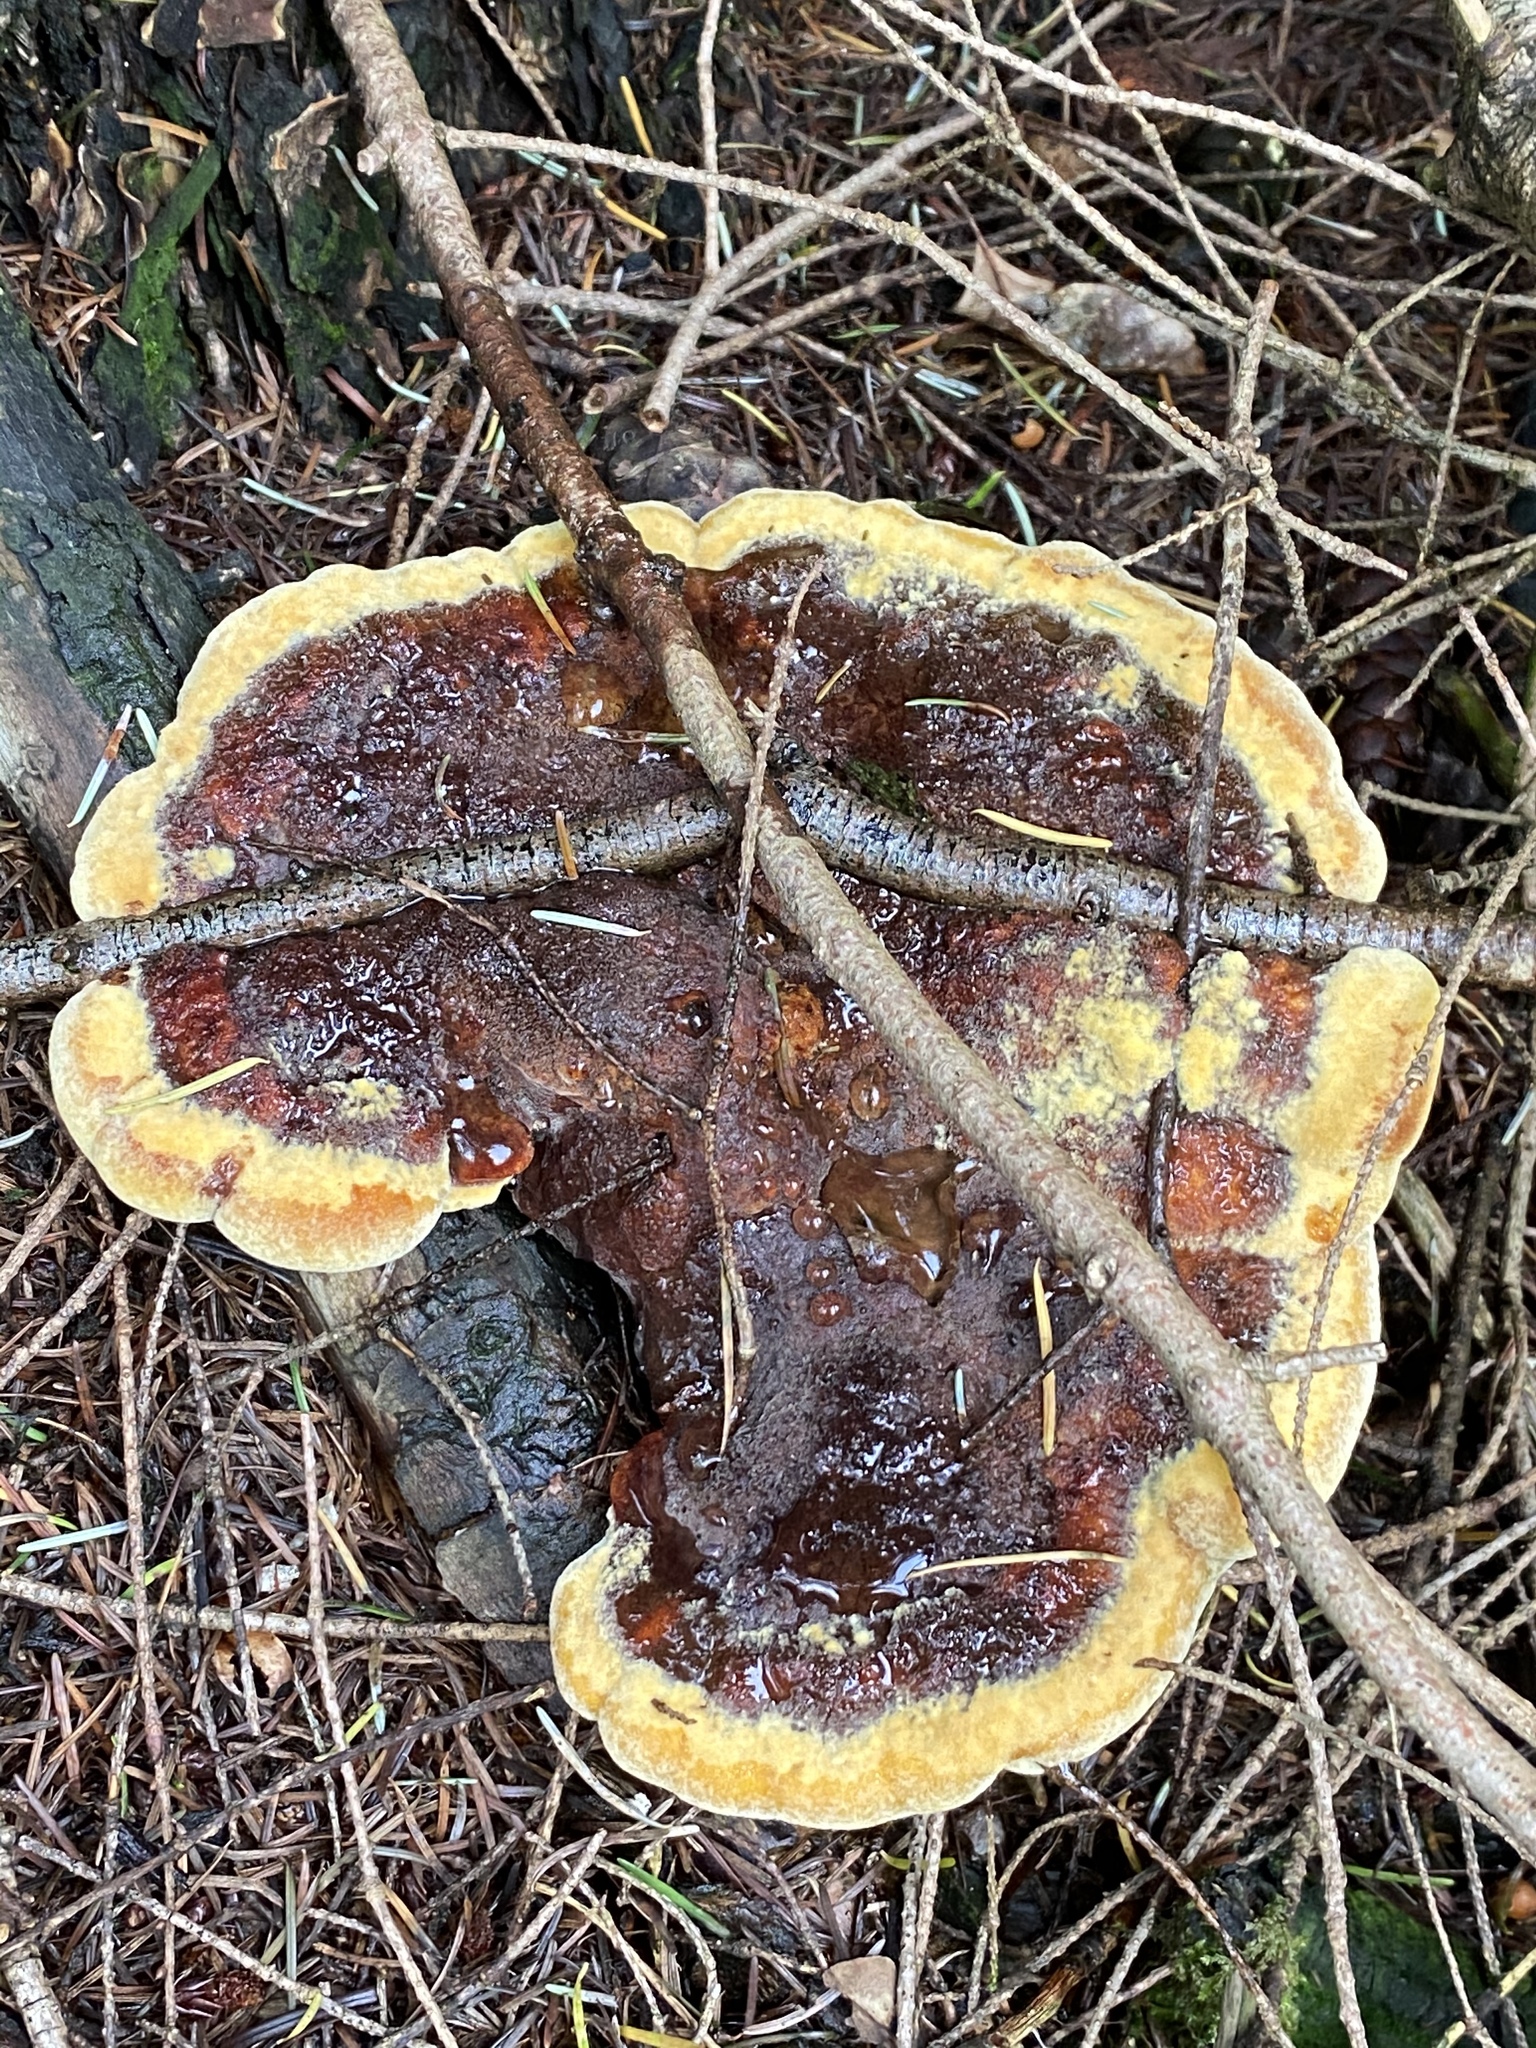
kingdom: Fungi
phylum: Basidiomycota
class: Agaricomycetes
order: Polyporales
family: Laetiporaceae
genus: Phaeolus
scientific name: Phaeolus schweinitzii
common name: Dyer's mazegill
